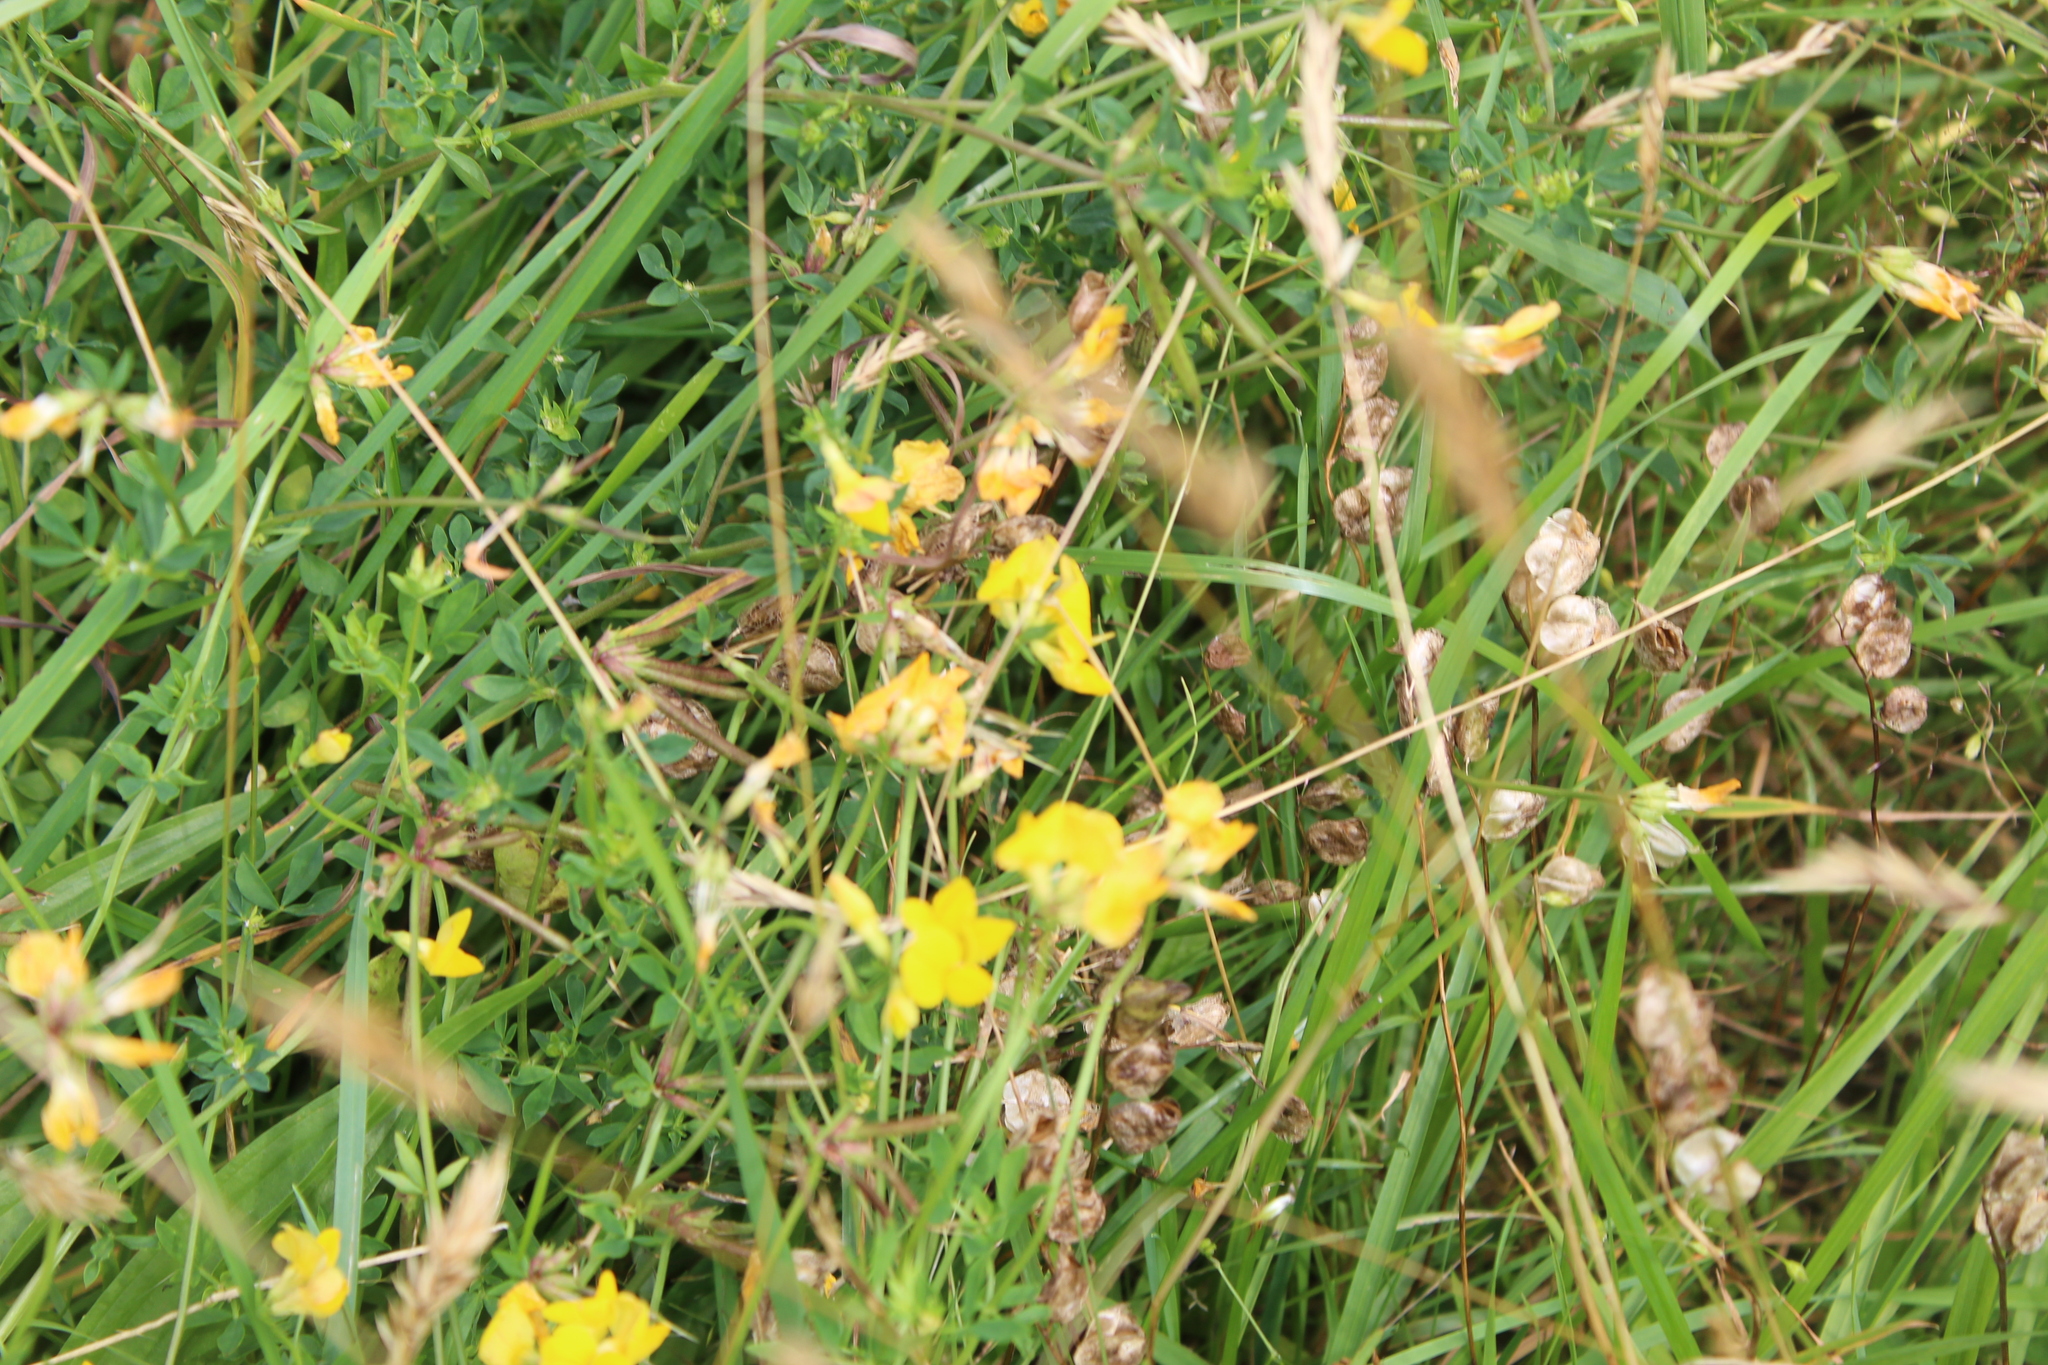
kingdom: Plantae
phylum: Tracheophyta
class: Magnoliopsida
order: Fabales
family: Fabaceae
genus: Lotus
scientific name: Lotus corniculatus
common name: Common bird's-foot-trefoil
